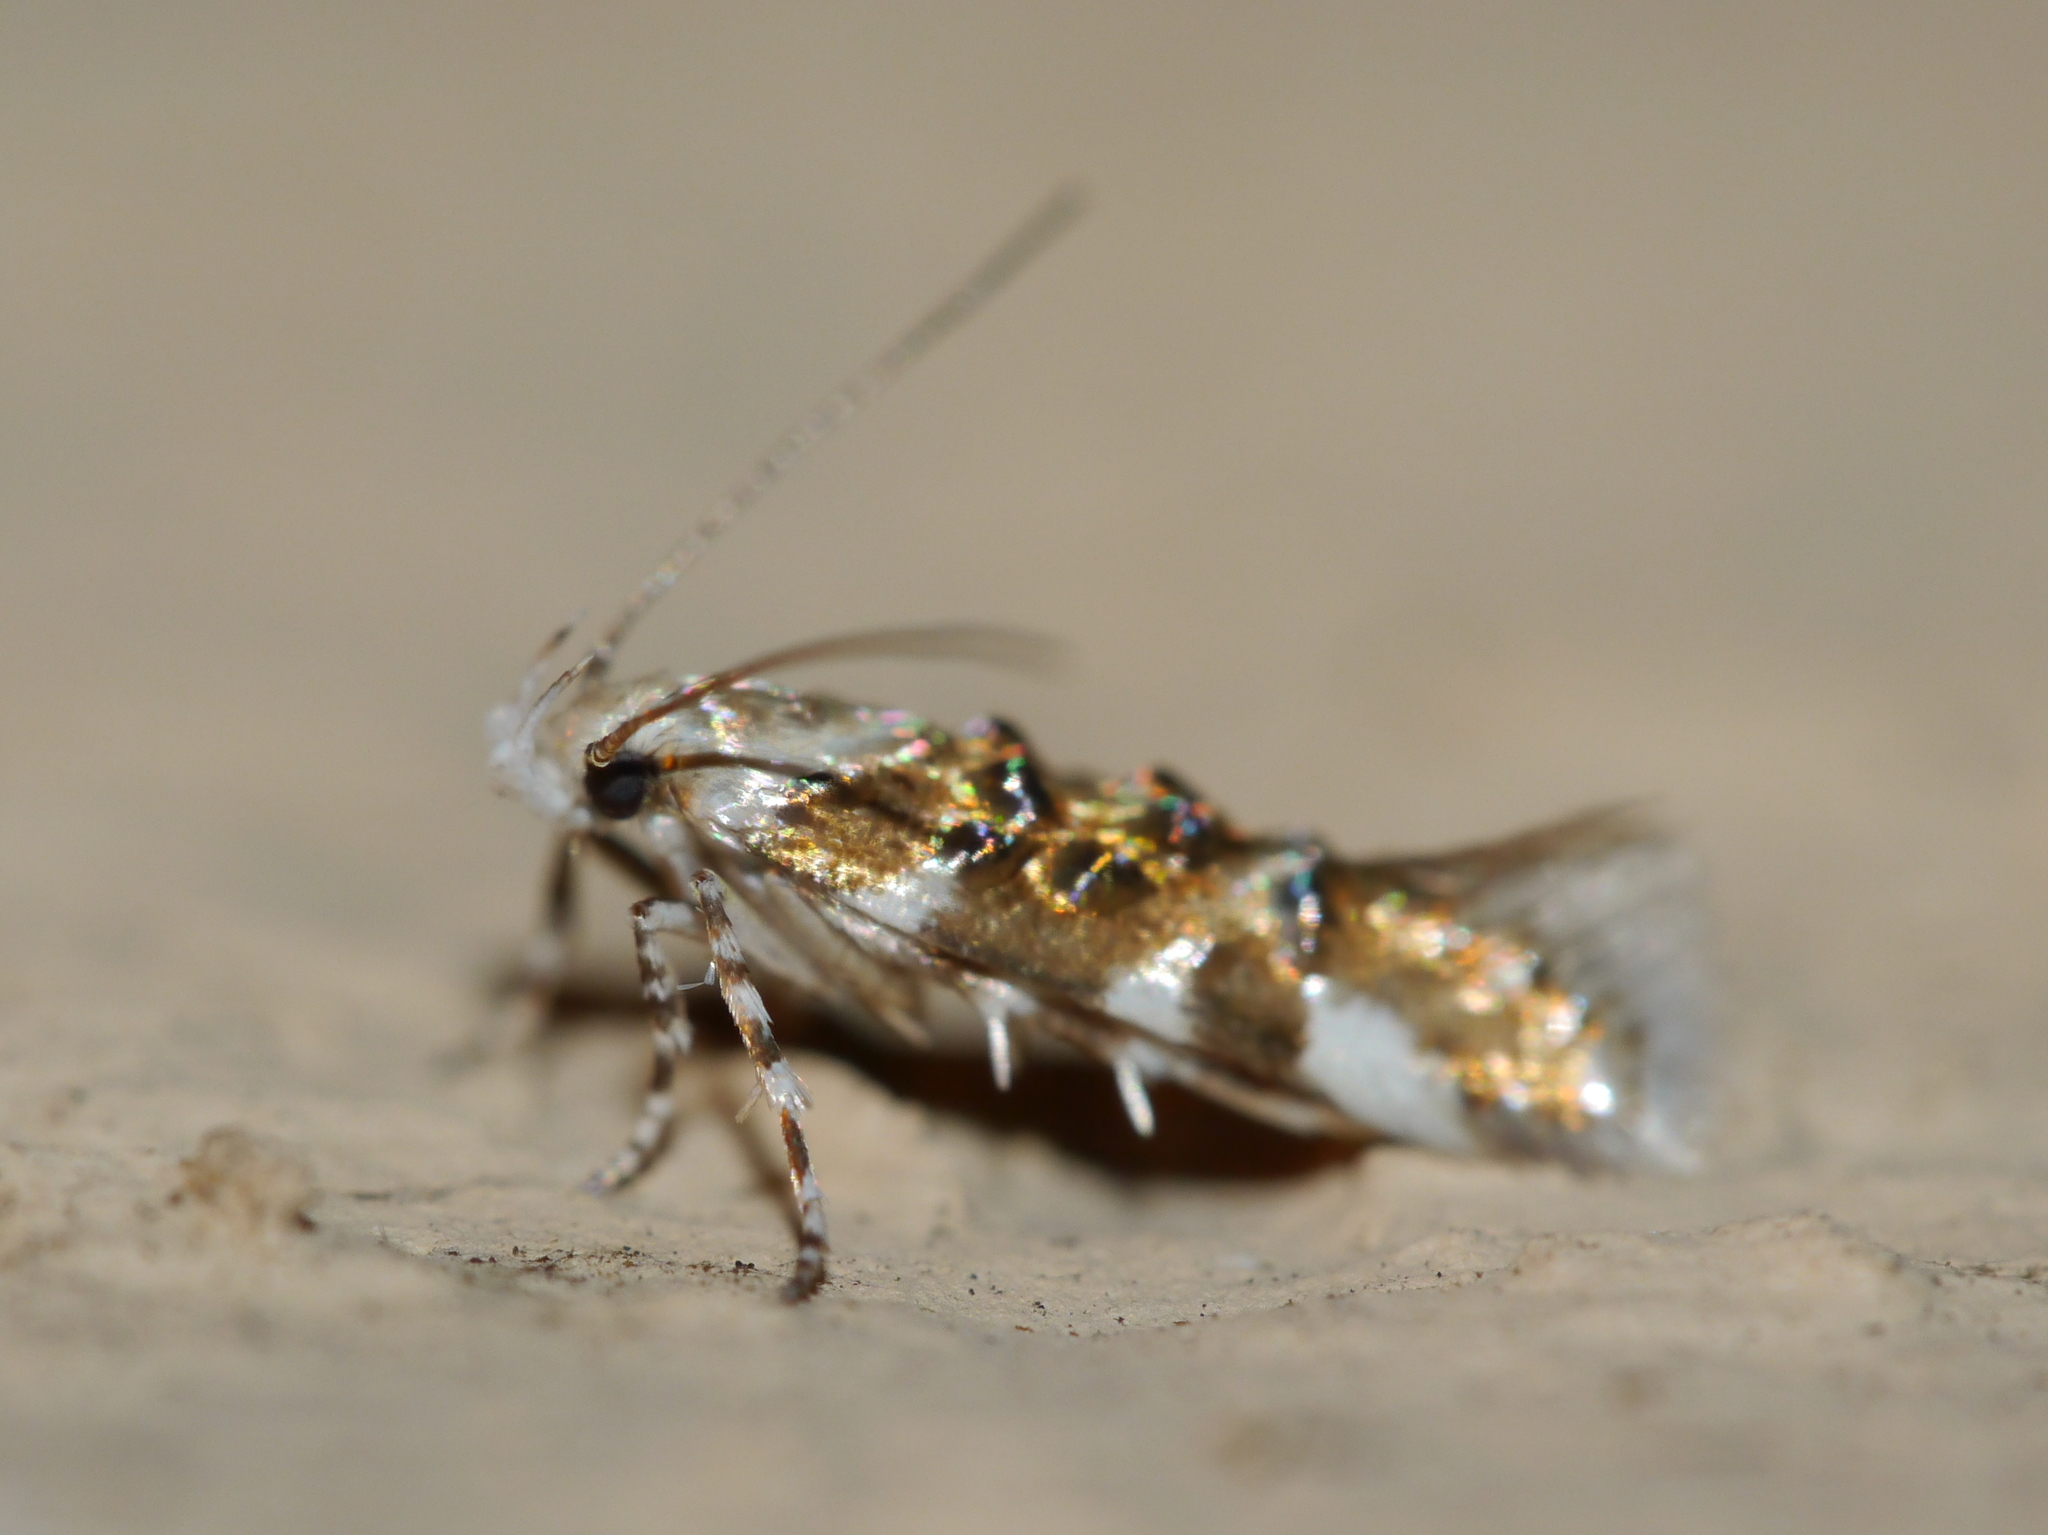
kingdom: Animalia
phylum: Arthropoda
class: Insecta
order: Lepidoptera
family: Cosmopterigidae
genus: Eteobalea
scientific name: Eteobalea
